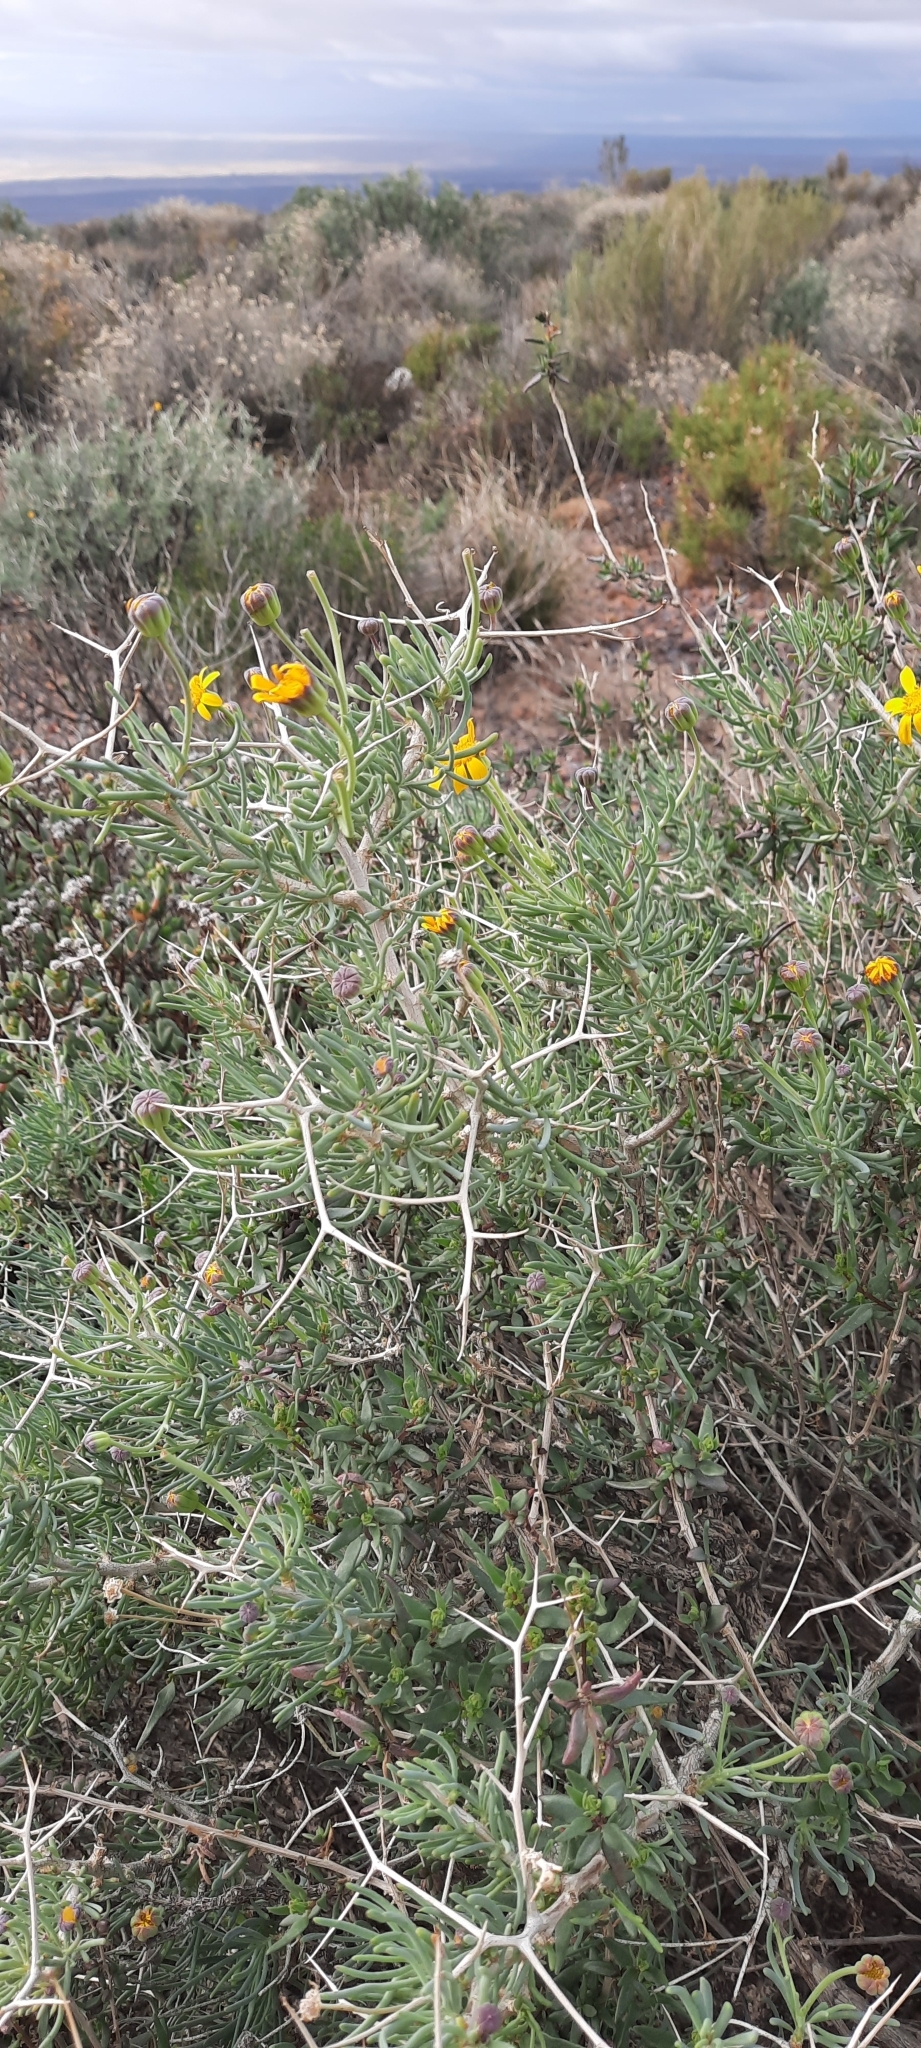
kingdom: Plantae
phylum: Tracheophyta
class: Magnoliopsida
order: Asterales
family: Asteraceae
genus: Othonna
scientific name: Othonna spinescens
